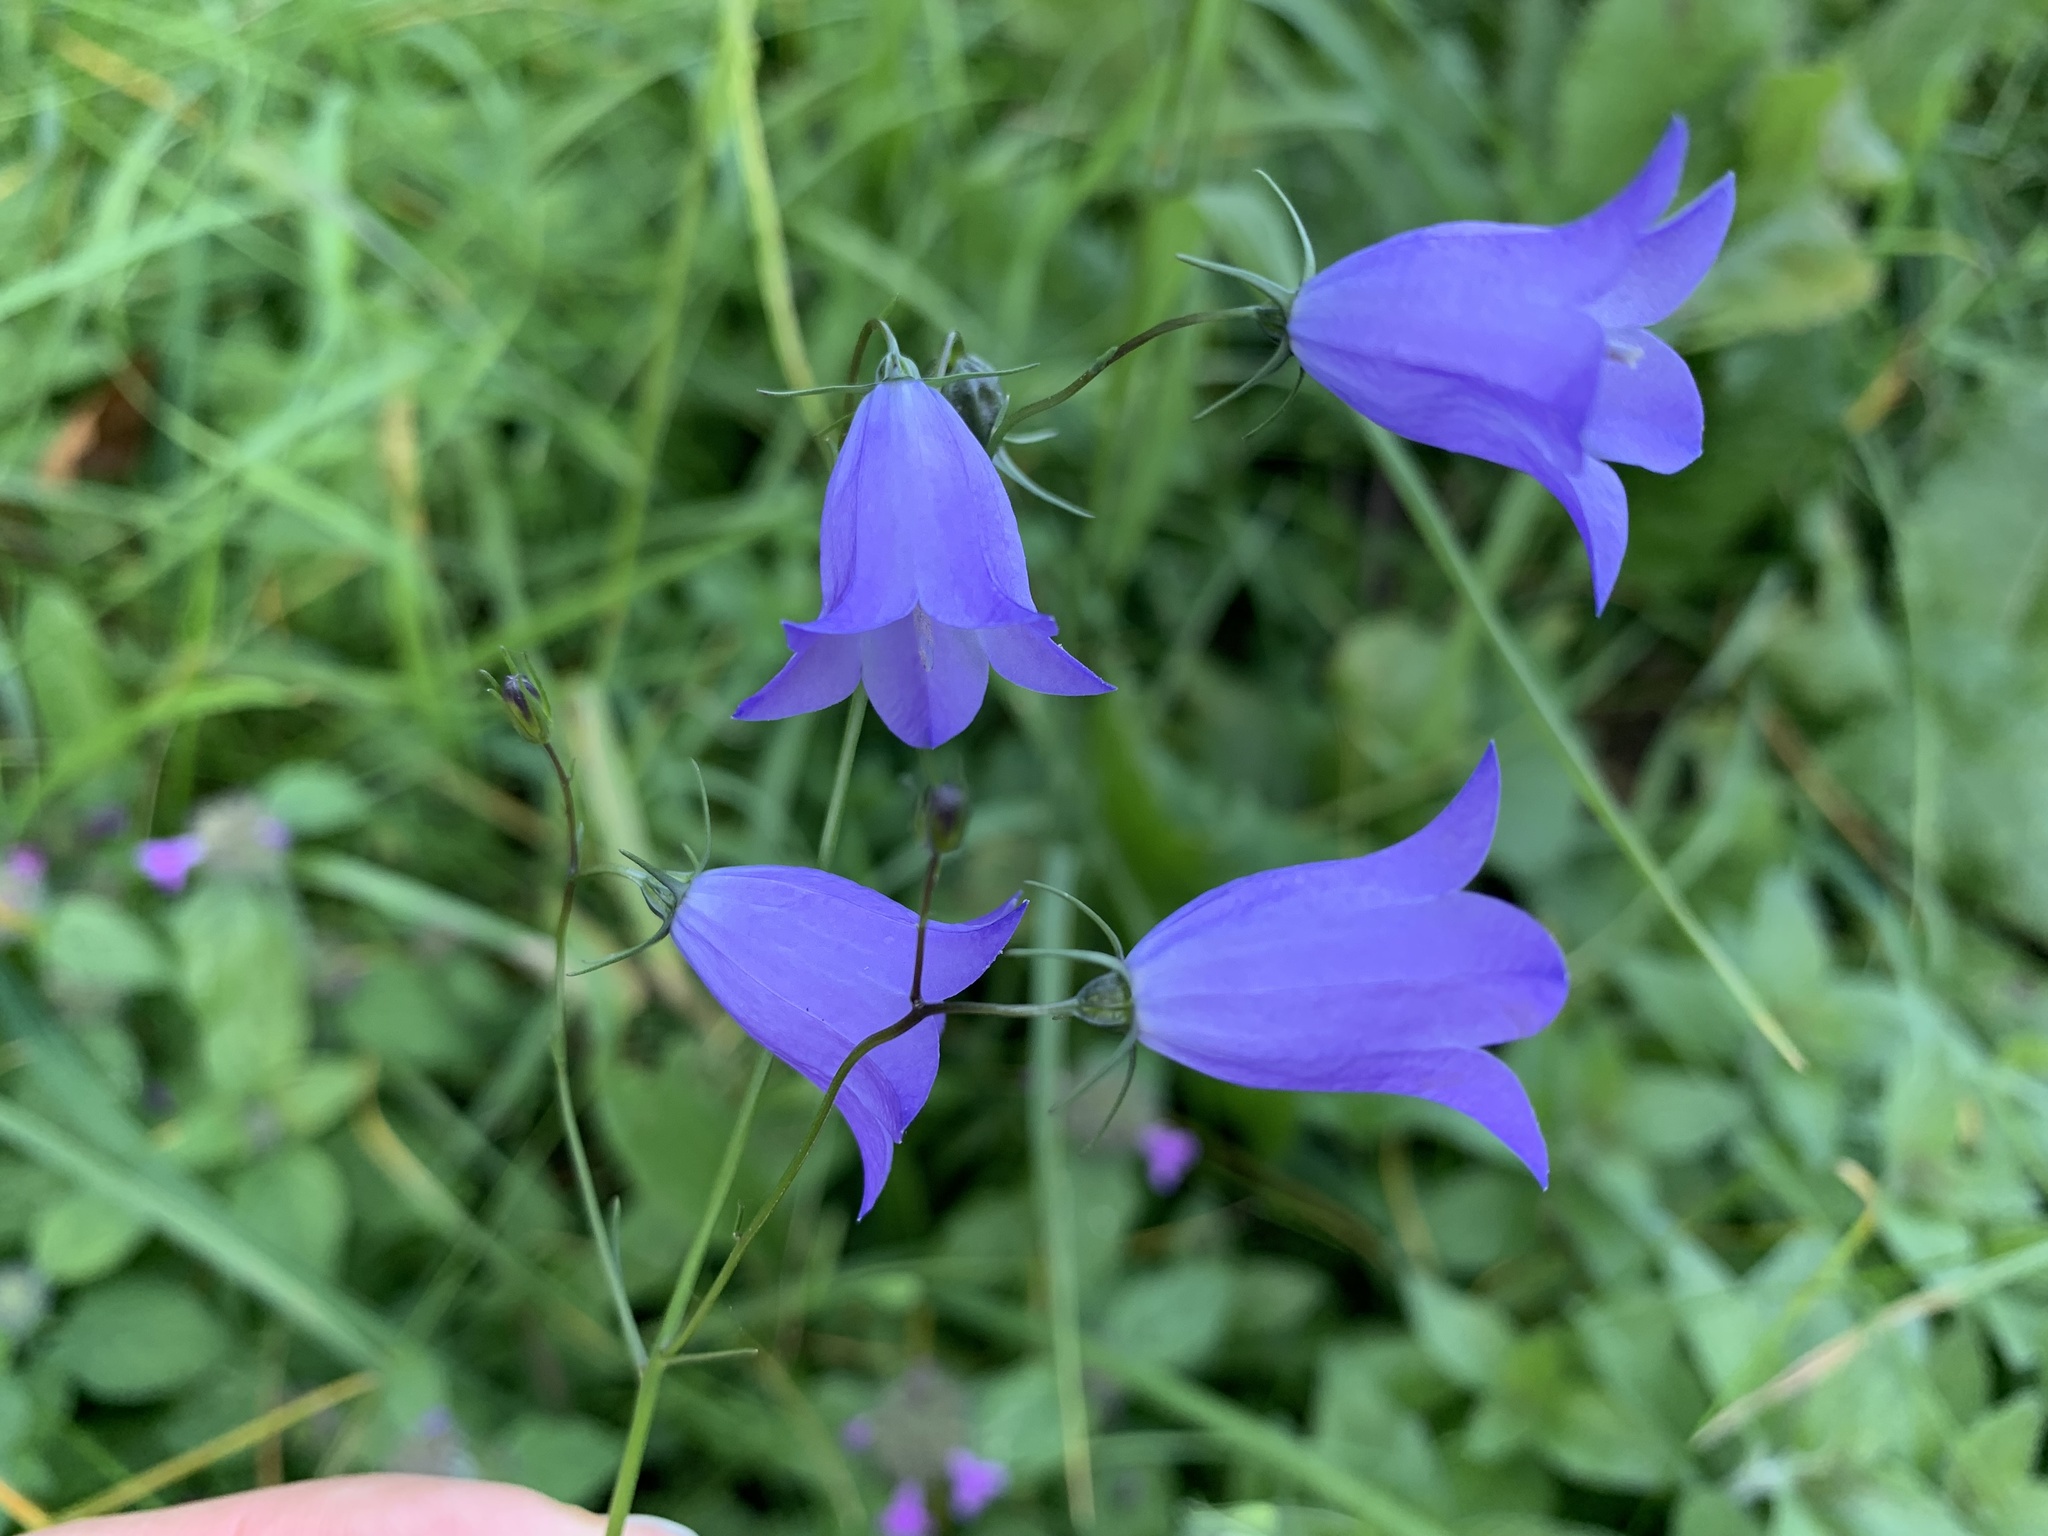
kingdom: Plantae
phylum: Tracheophyta
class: Magnoliopsida
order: Asterales
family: Campanulaceae
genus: Campanula
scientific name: Campanula rotundifolia
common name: Harebell
